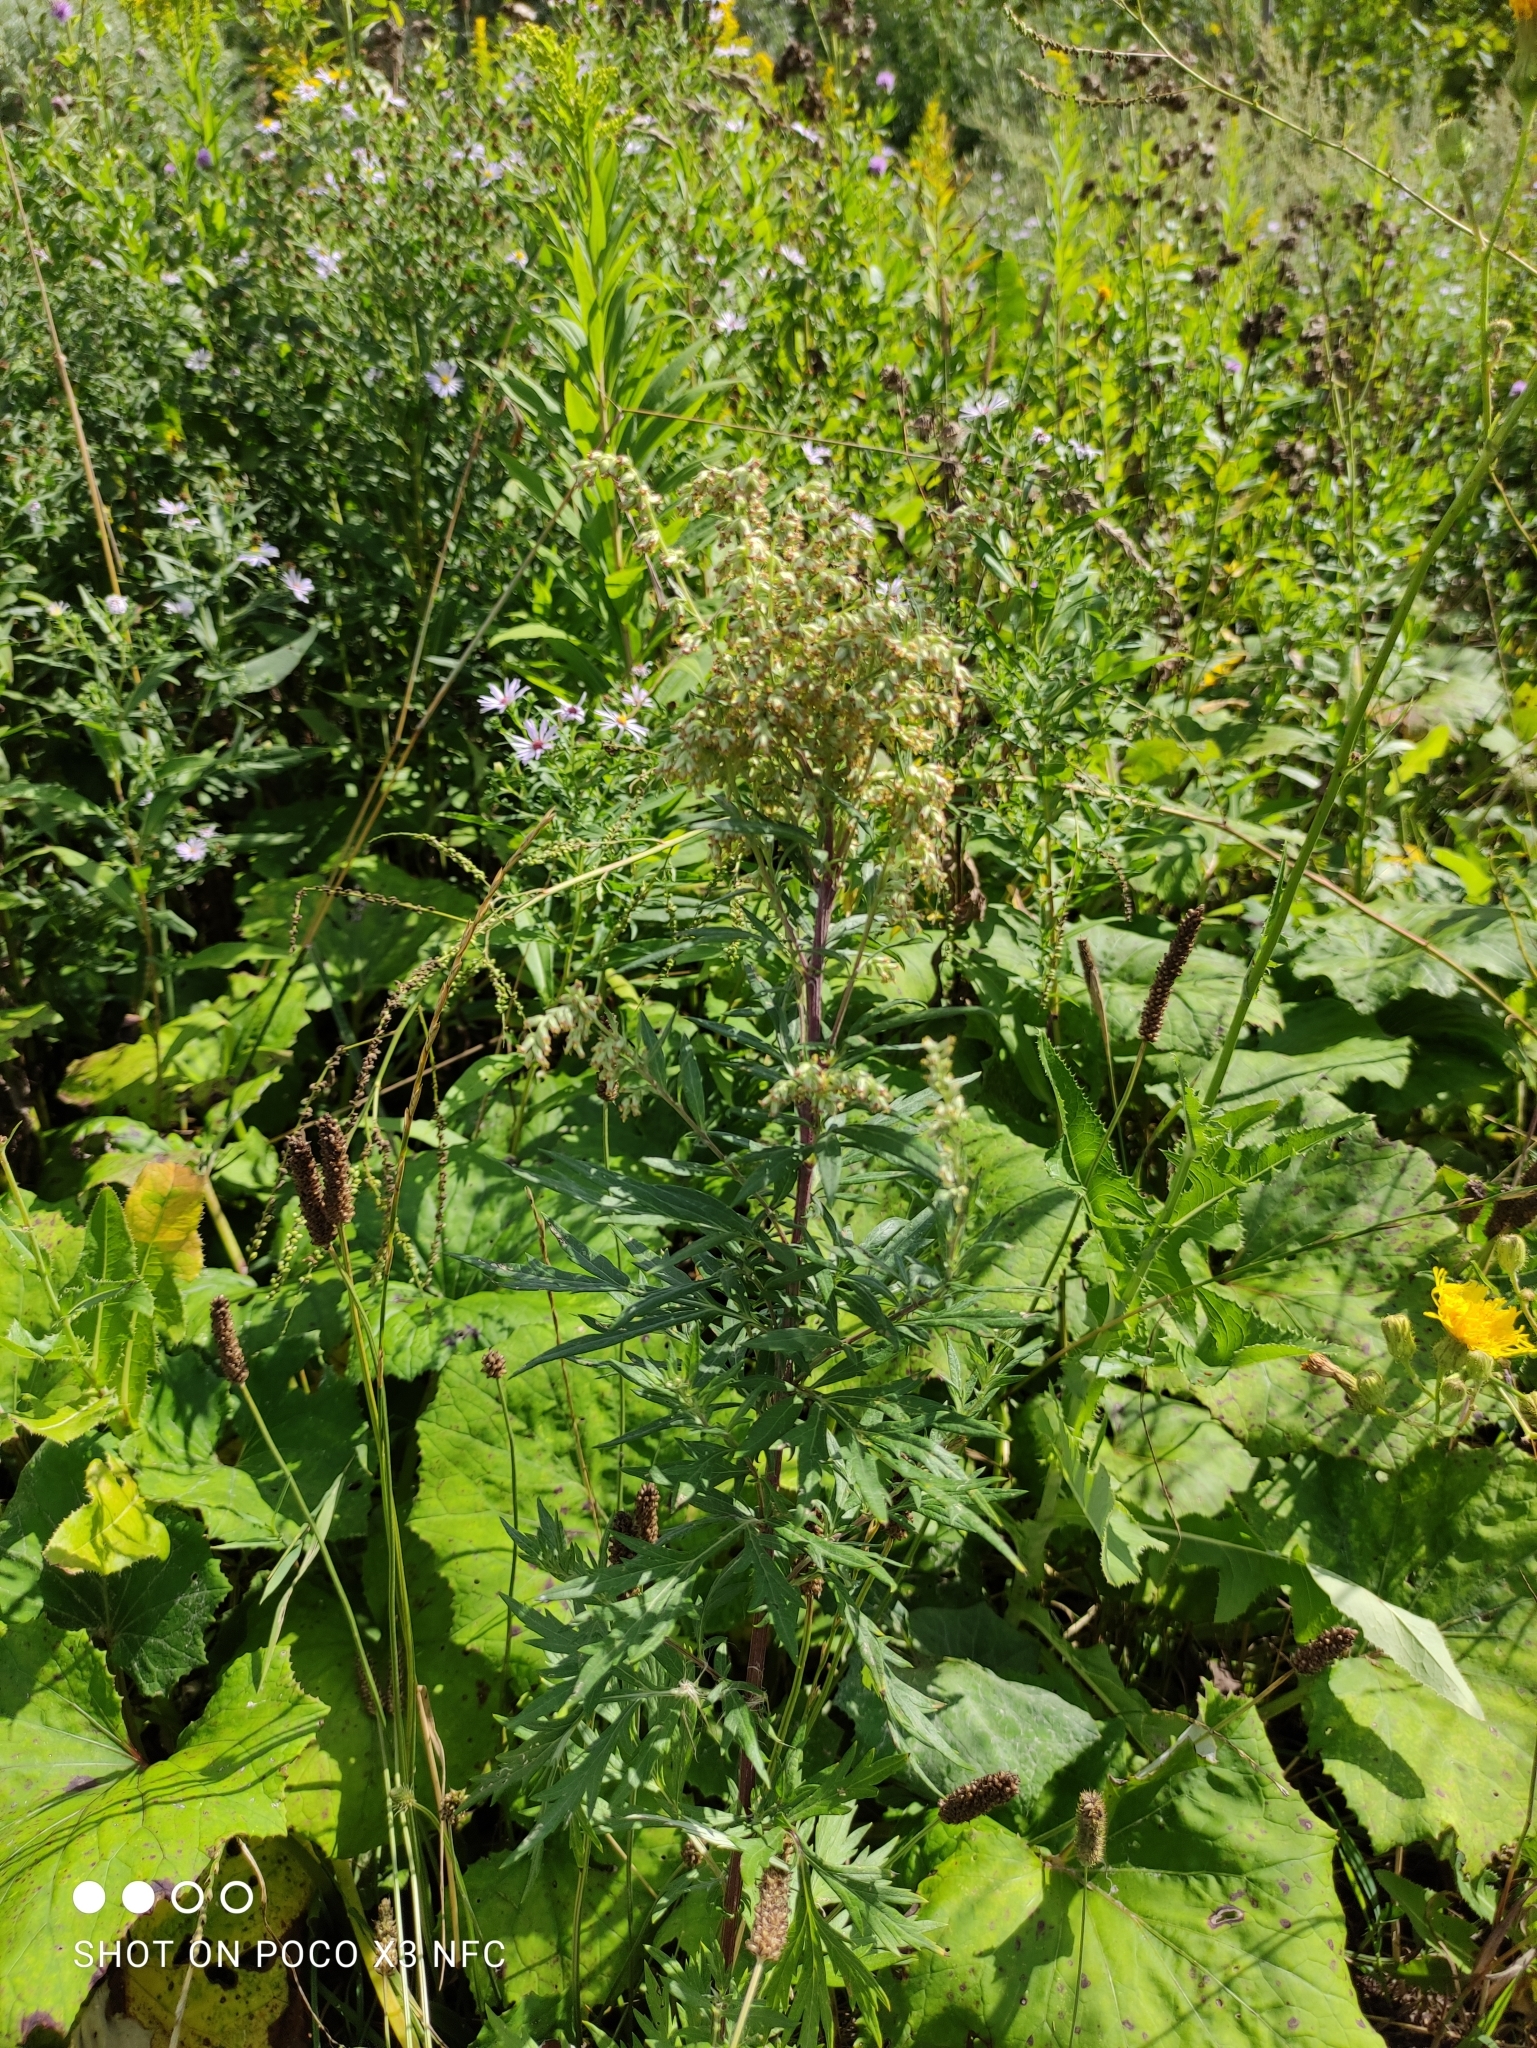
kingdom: Plantae
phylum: Tracheophyta
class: Magnoliopsida
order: Asterales
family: Asteraceae
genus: Artemisia
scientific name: Artemisia vulgaris
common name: Mugwort
